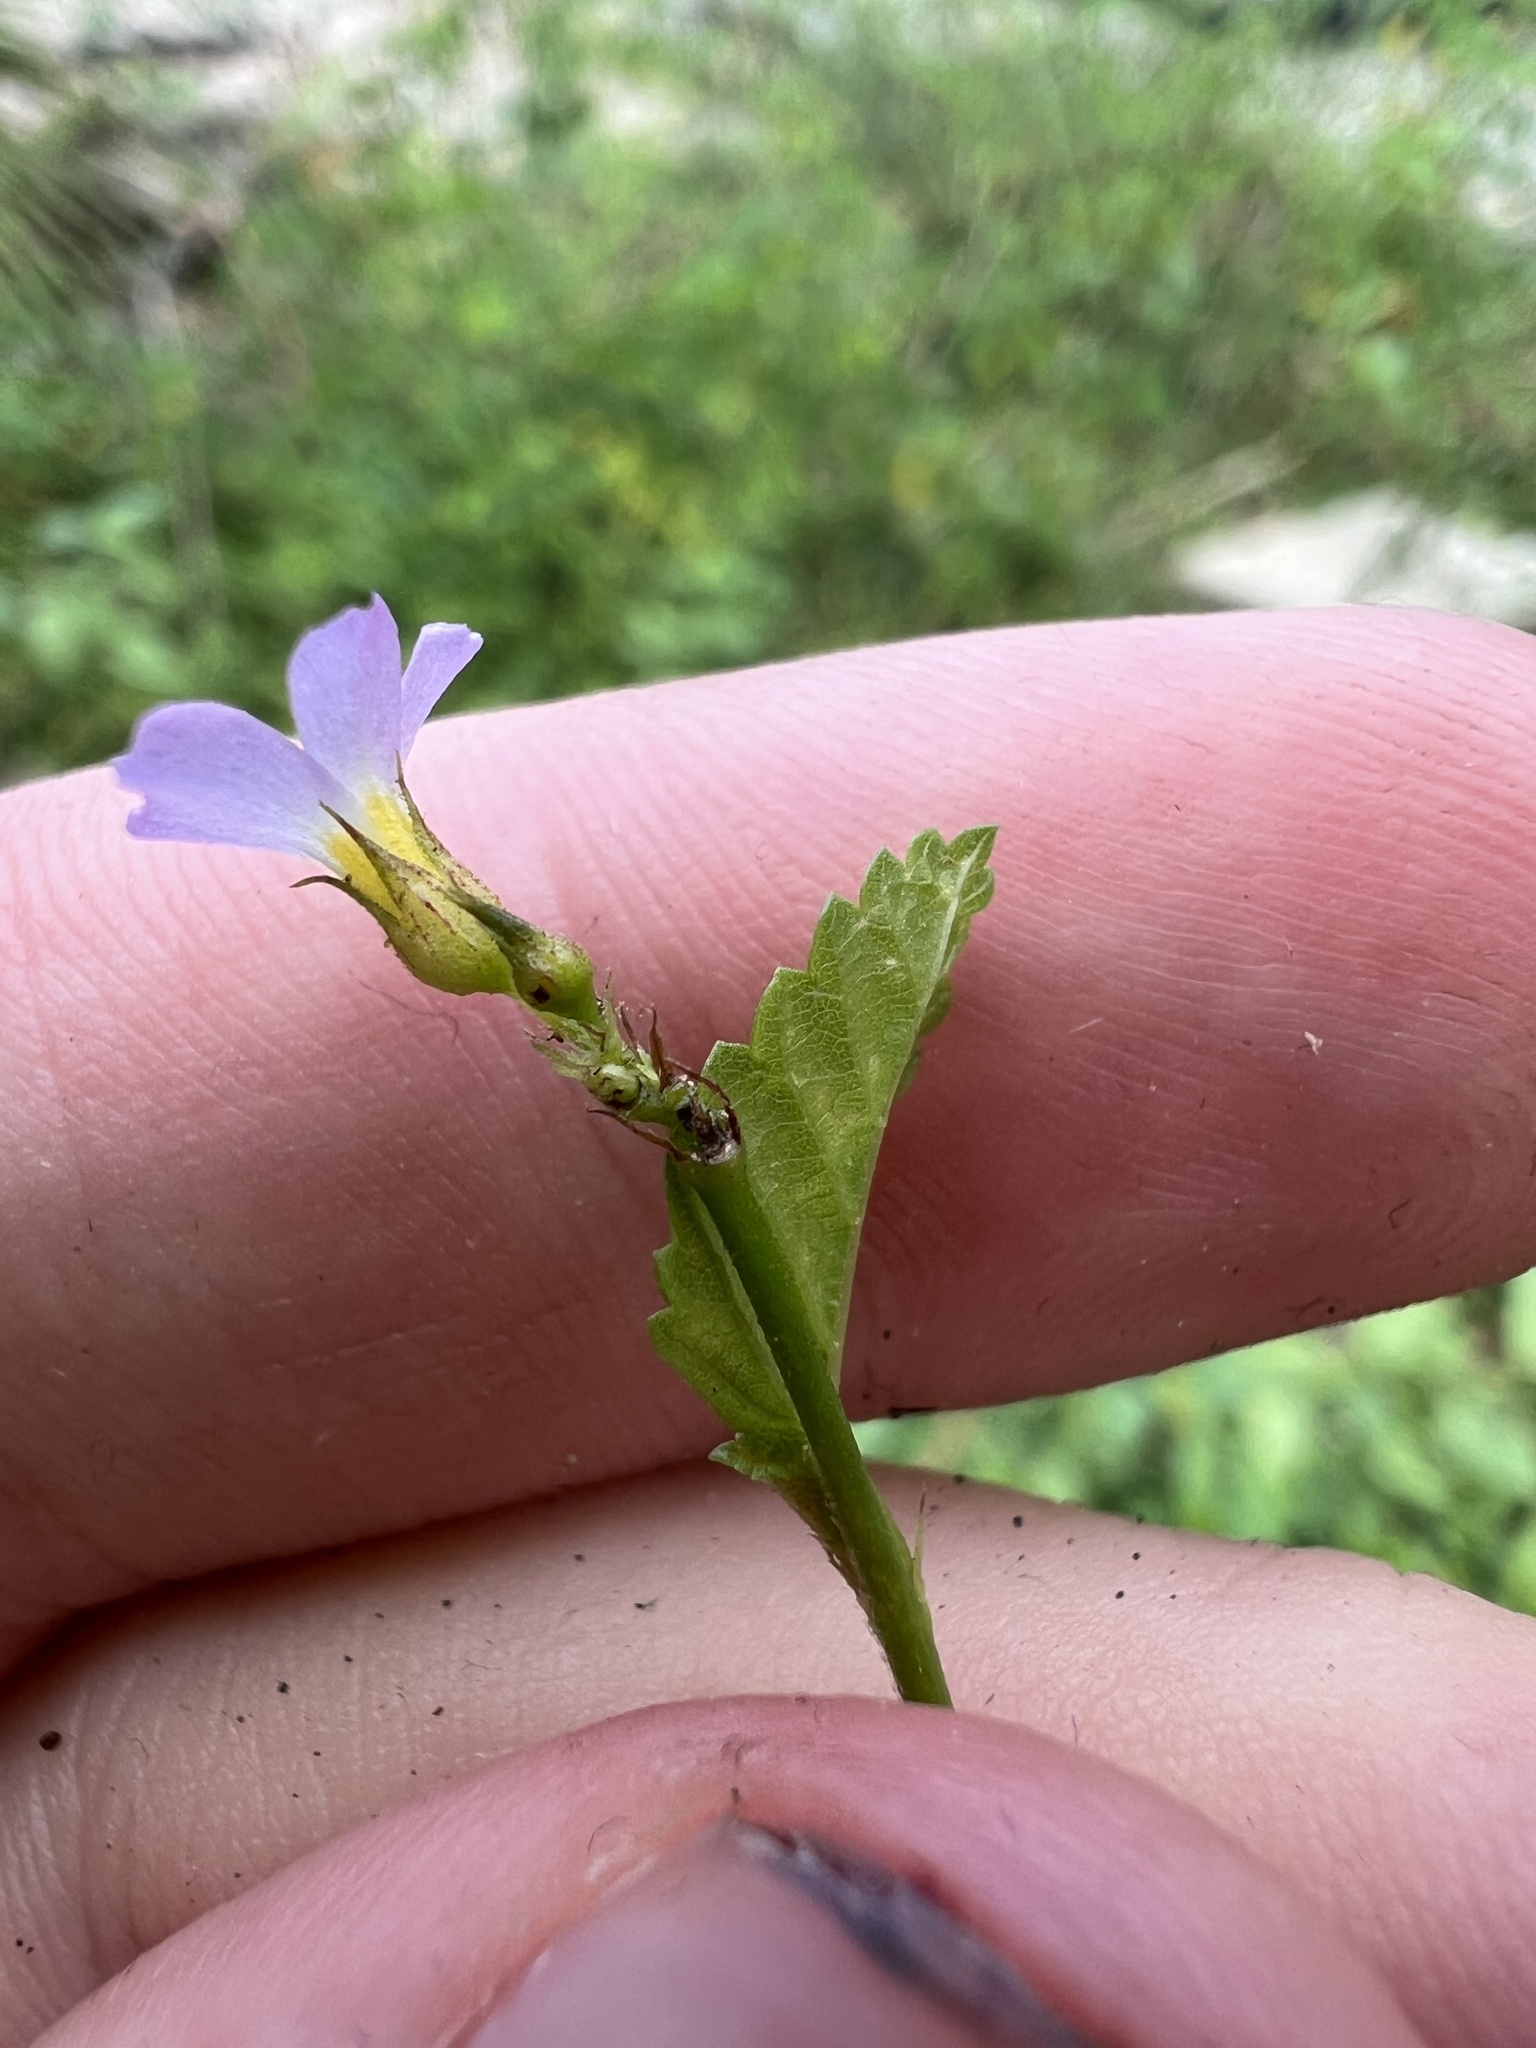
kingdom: Plantae
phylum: Tracheophyta
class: Magnoliopsida
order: Malvales
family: Malvaceae
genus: Melochia
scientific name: Melochia pyramidata
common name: Pyramidflower
